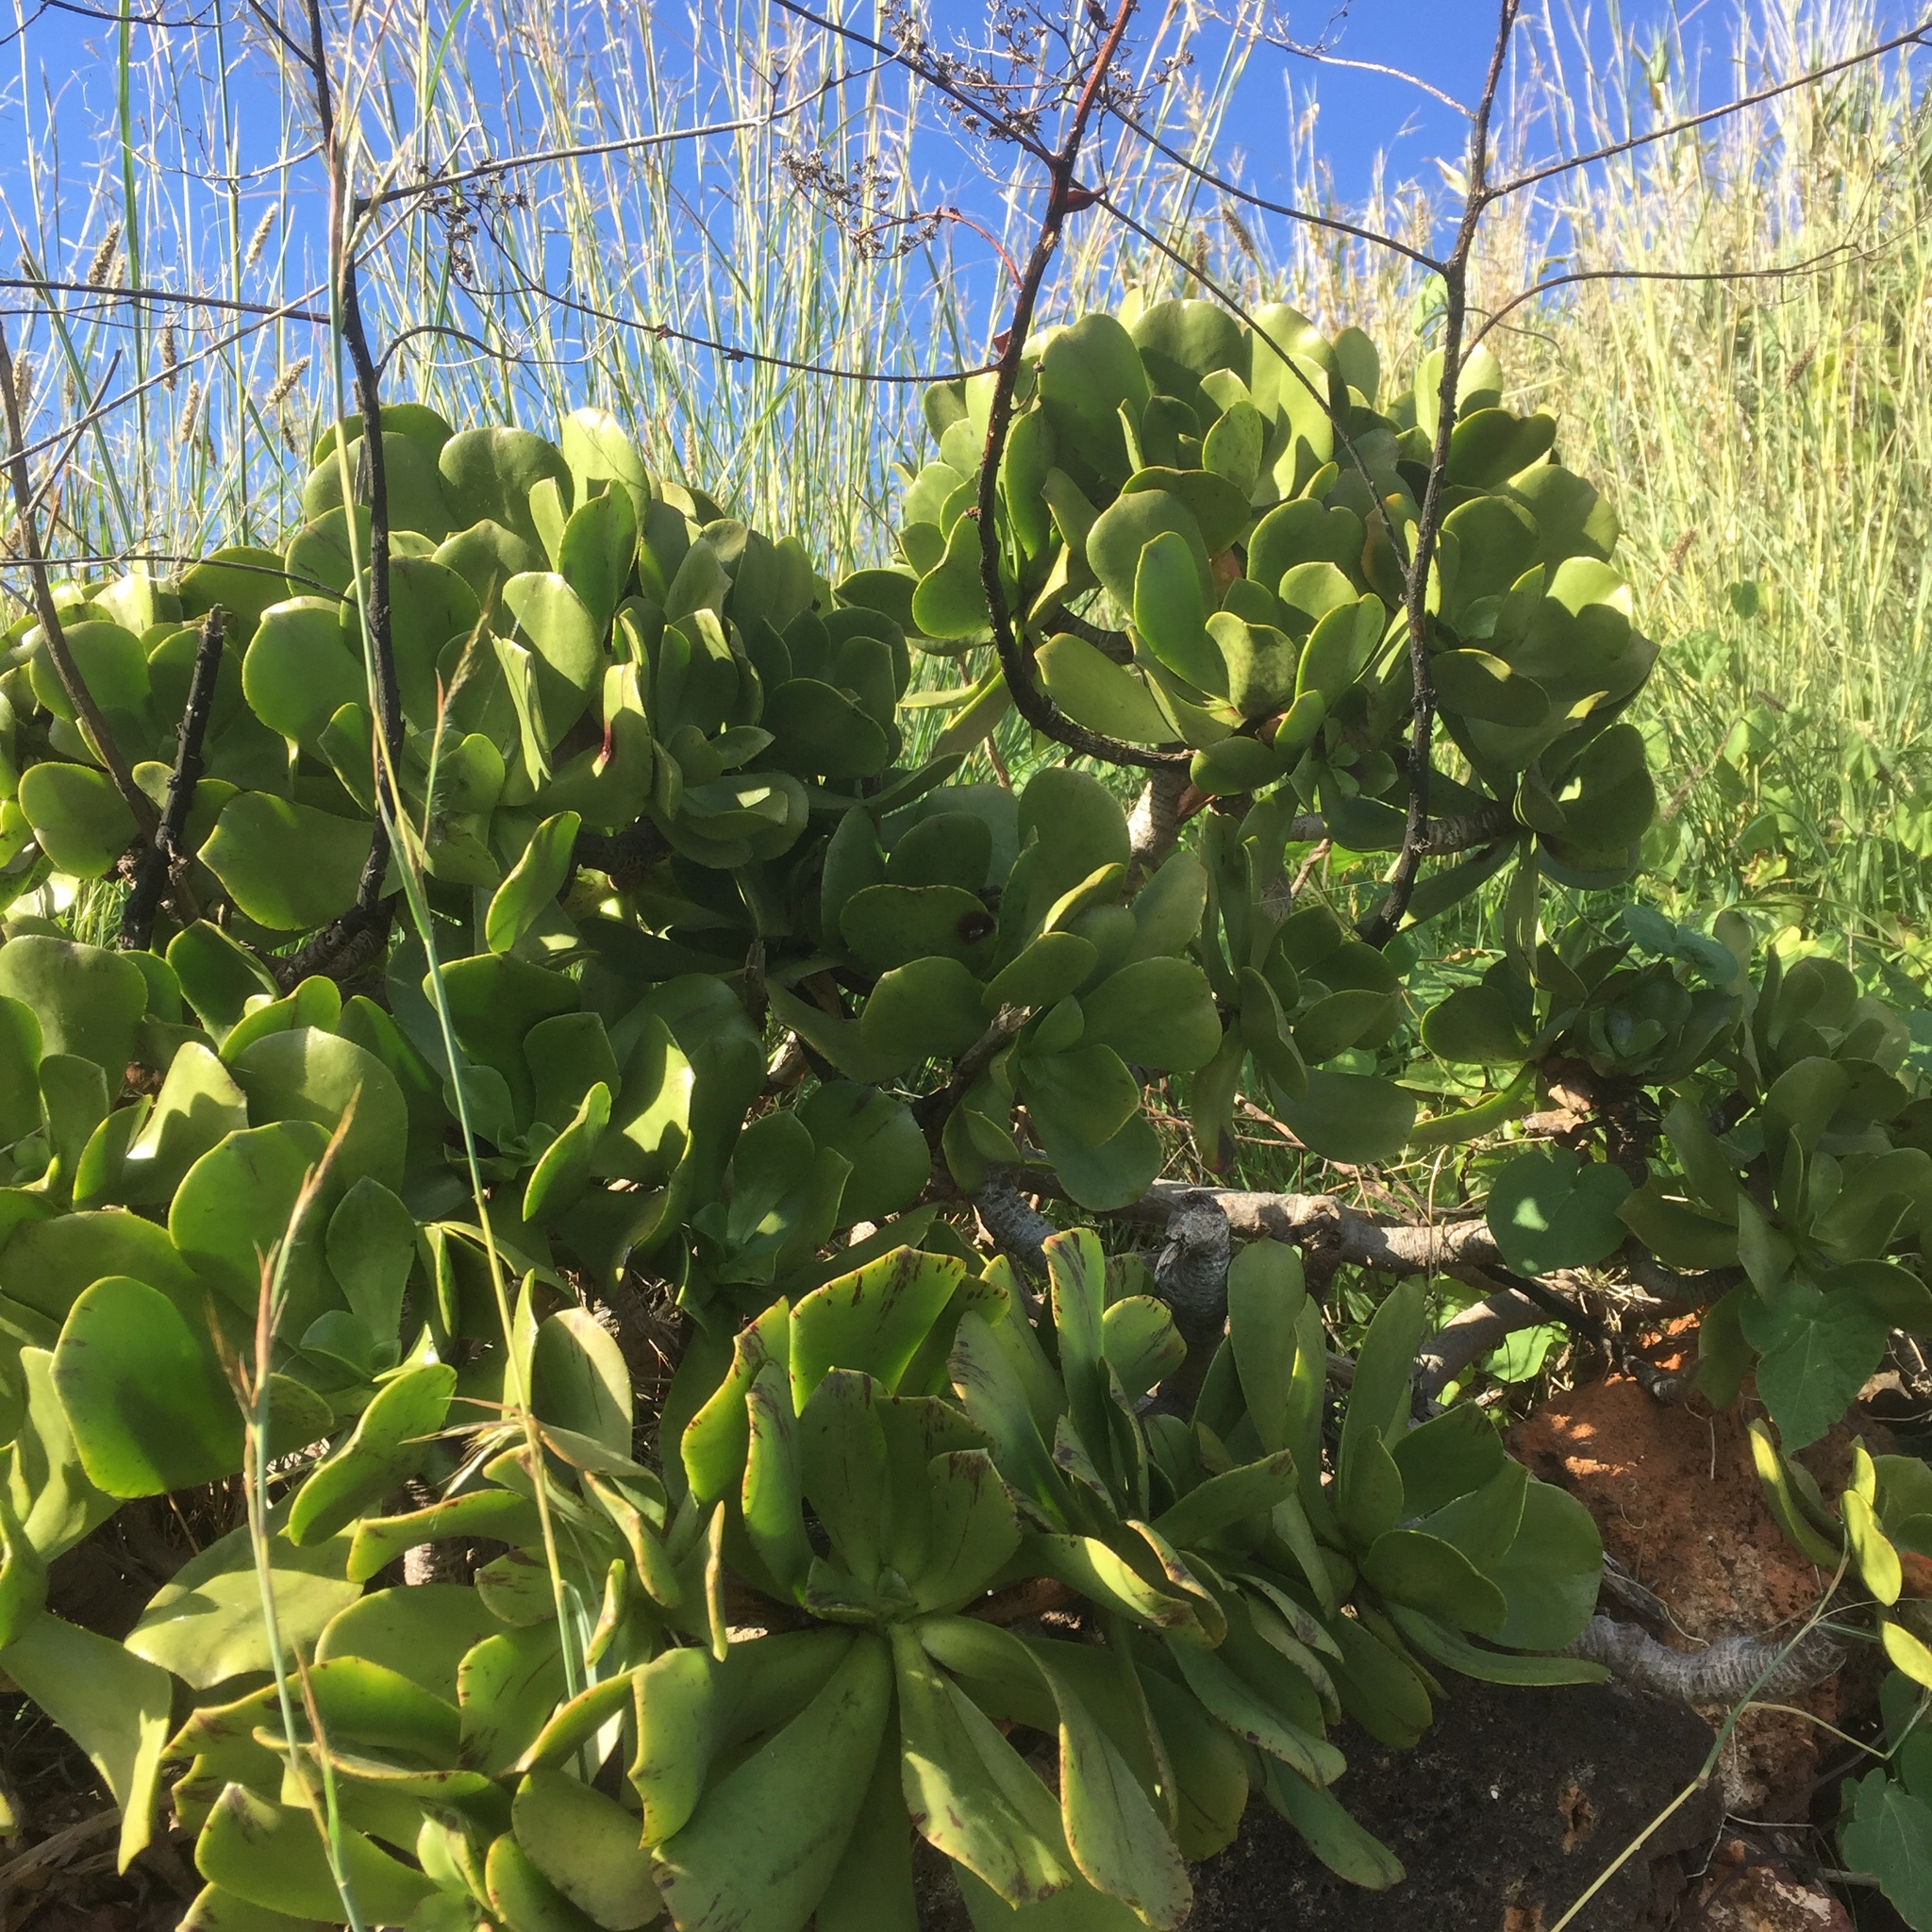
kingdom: Plantae
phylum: Tracheophyta
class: Magnoliopsida
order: Saxifragales
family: Crassulaceae
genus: Aeonium
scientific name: Aeonium glutinosum
